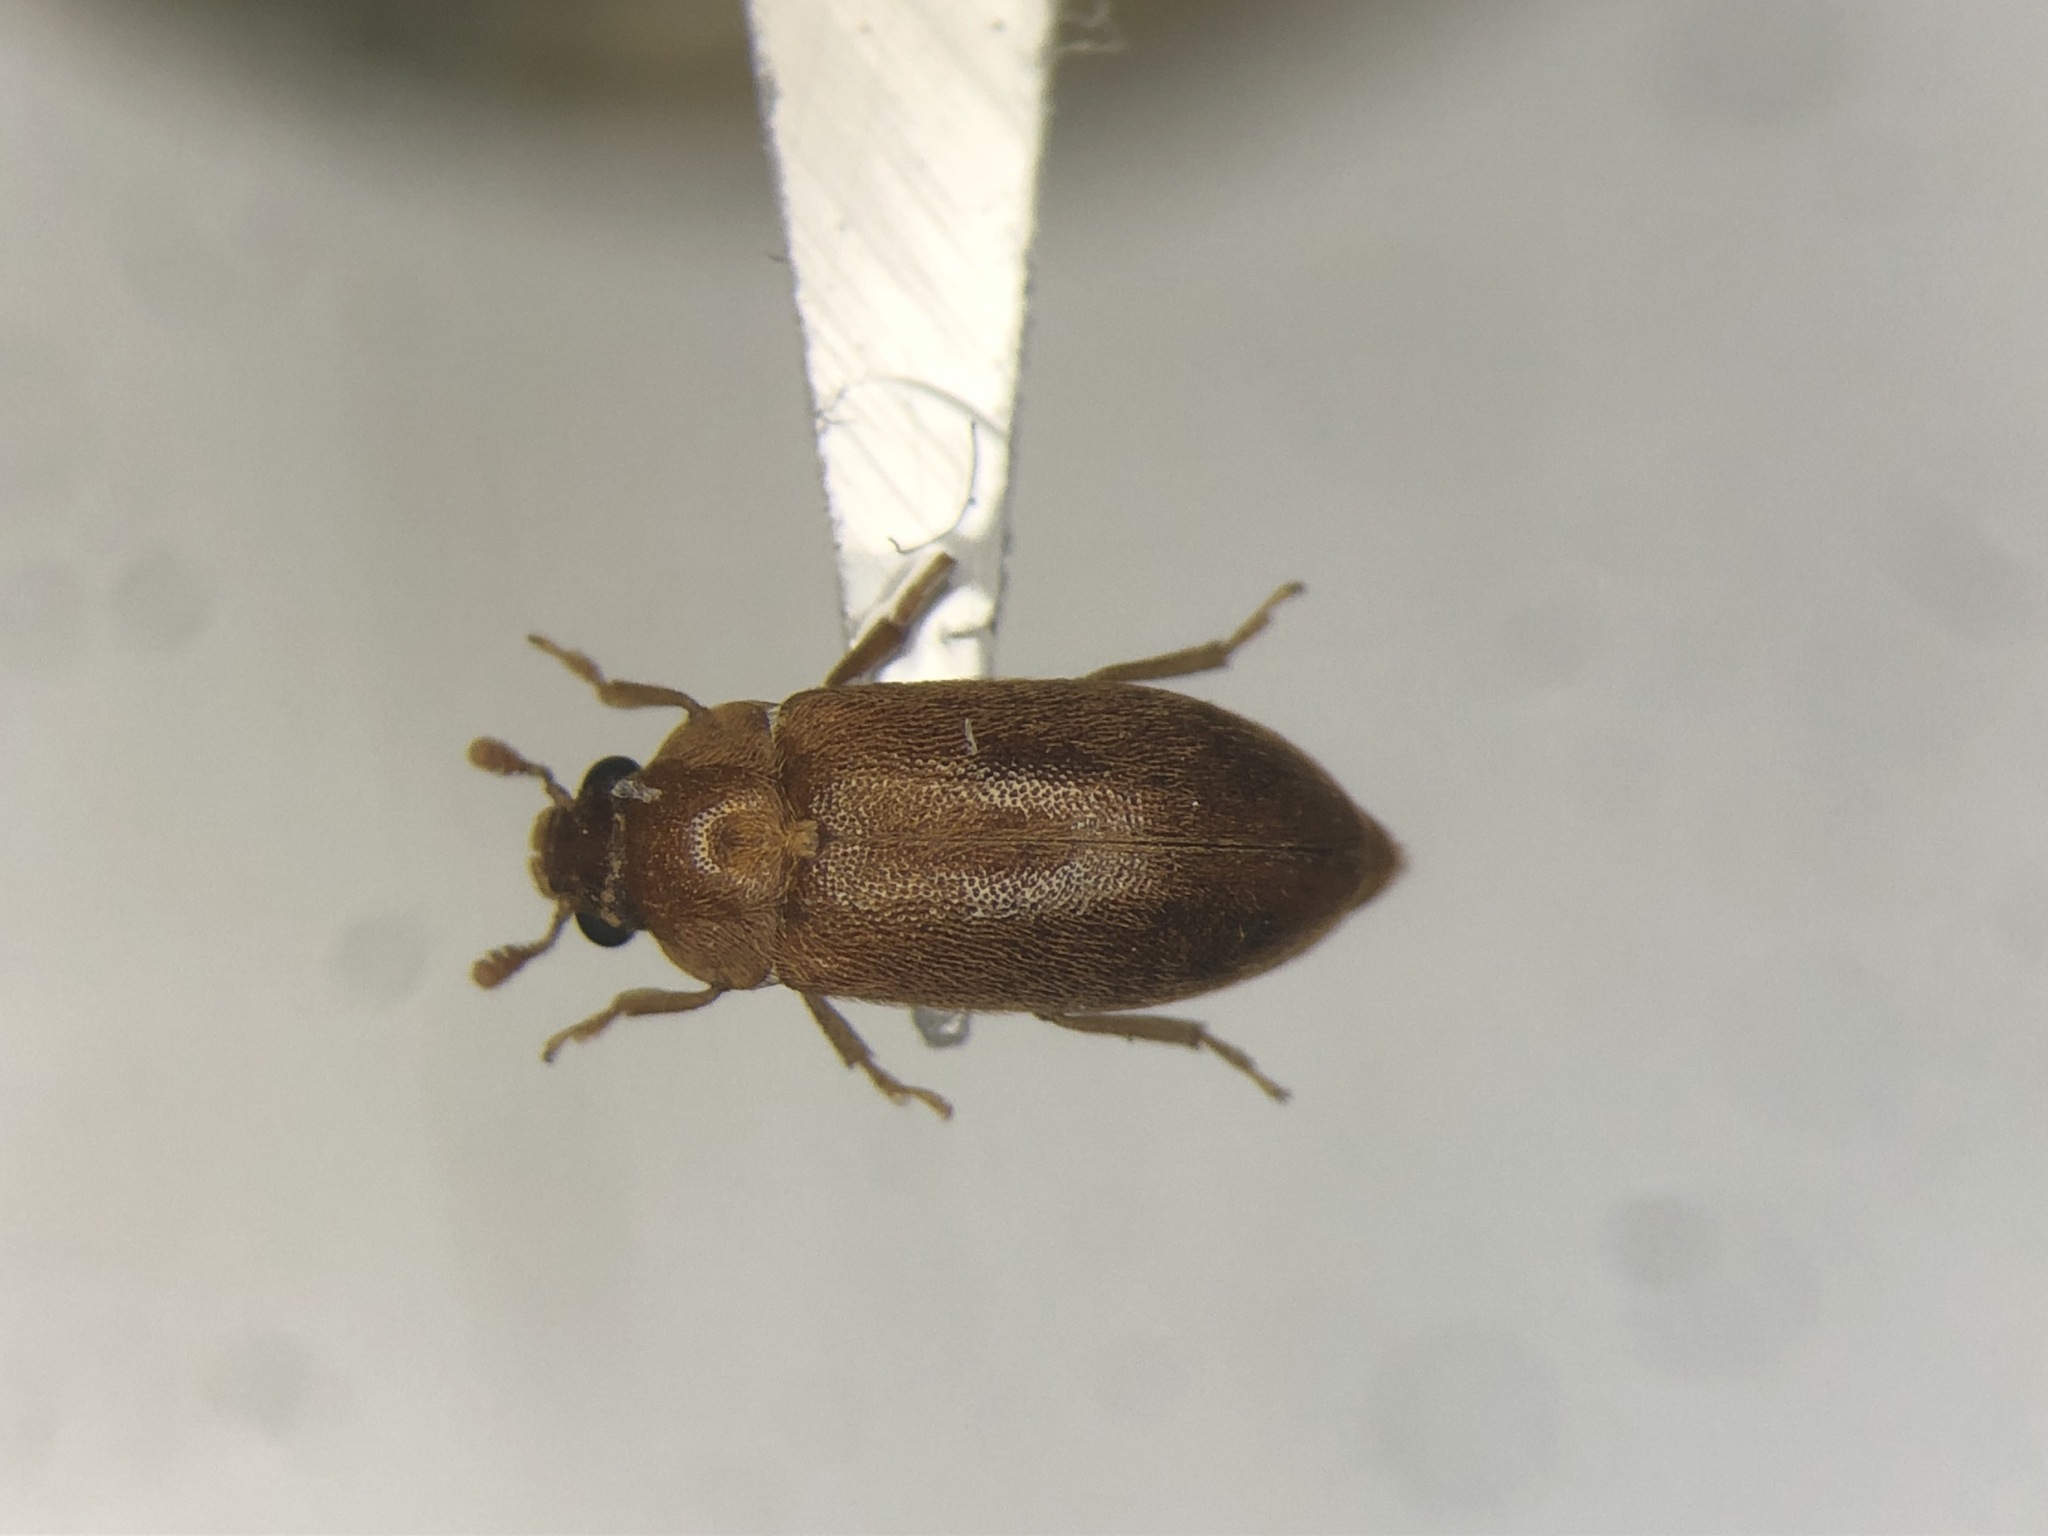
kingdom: Animalia
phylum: Arthropoda
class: Insecta
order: Coleoptera
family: Byturidae
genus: Byturus
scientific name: Byturus unicolor
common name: Raspberry fruitworm beetle
